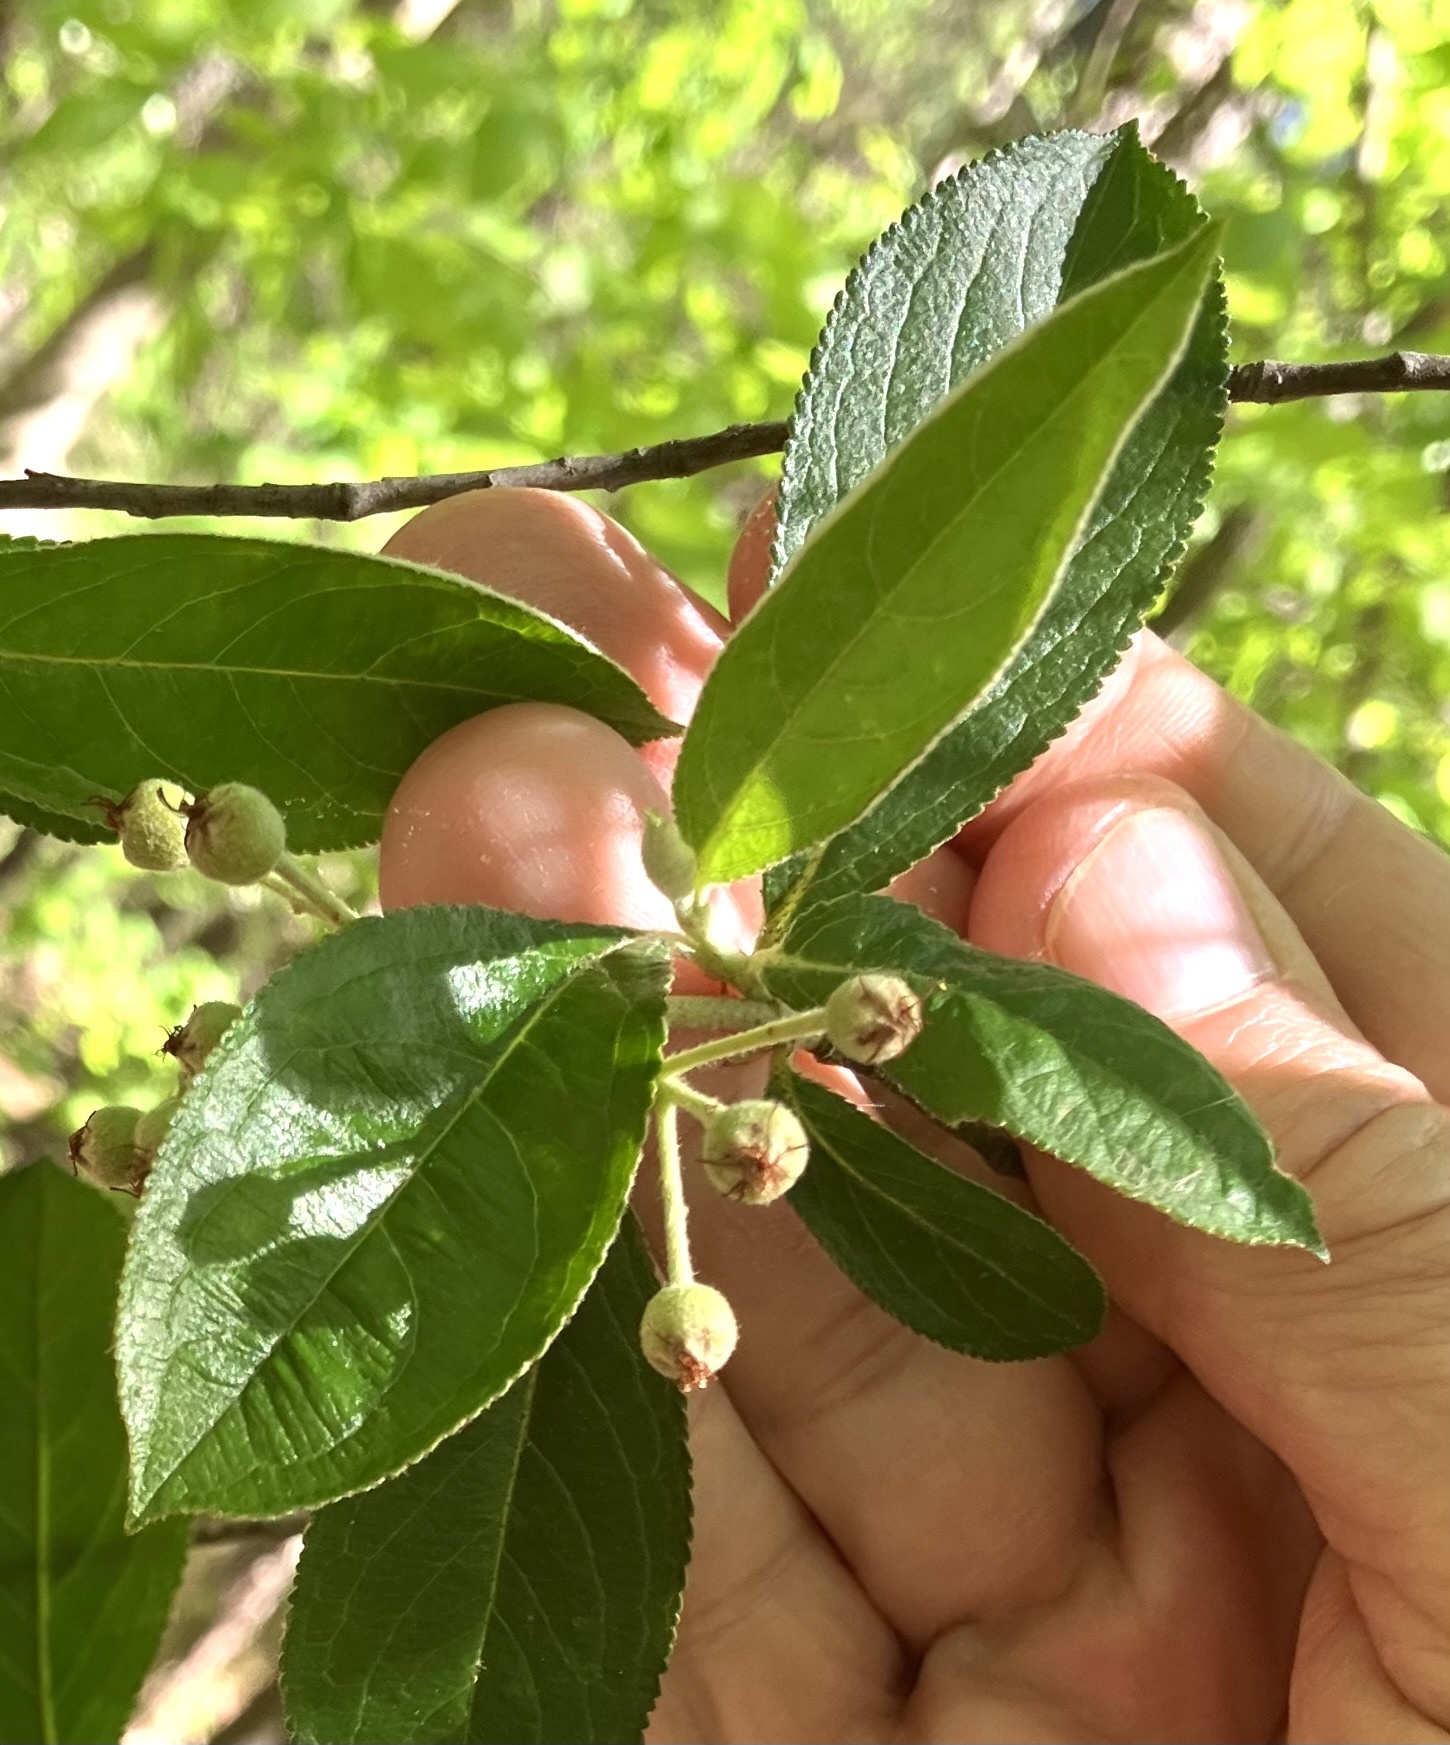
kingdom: Plantae
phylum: Tracheophyta
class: Magnoliopsida
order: Rosales
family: Rosaceae
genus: Aronia
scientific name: Aronia arbutifolia
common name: Red chokeberry
